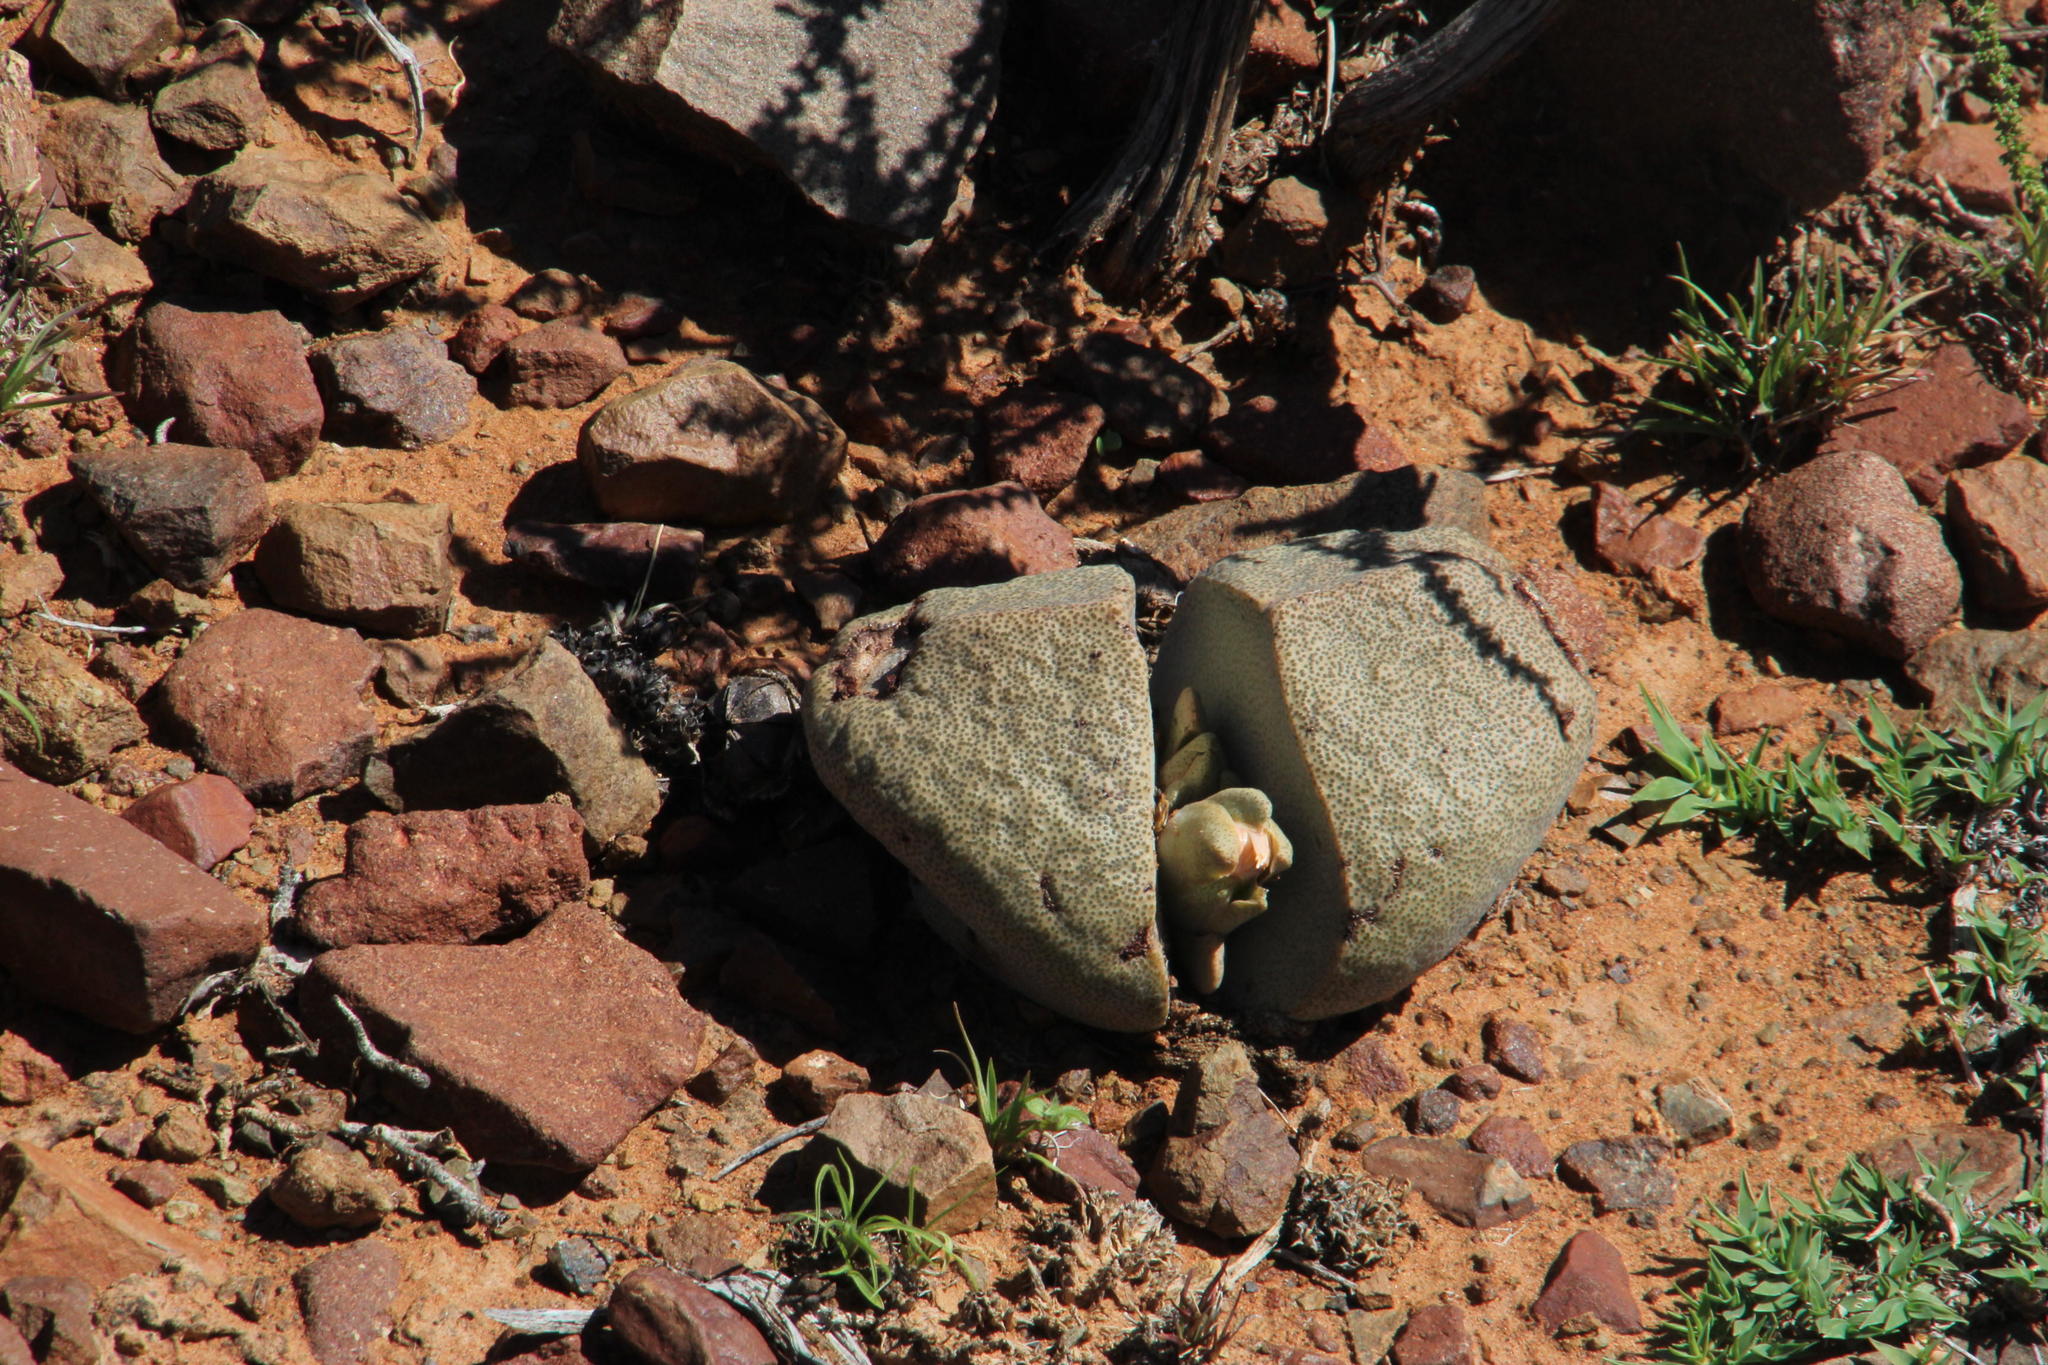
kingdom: Plantae
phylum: Tracheophyta
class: Magnoliopsida
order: Caryophyllales
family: Aizoaceae
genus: Pleiospilos
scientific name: Pleiospilos bolusii
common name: African living-rock
